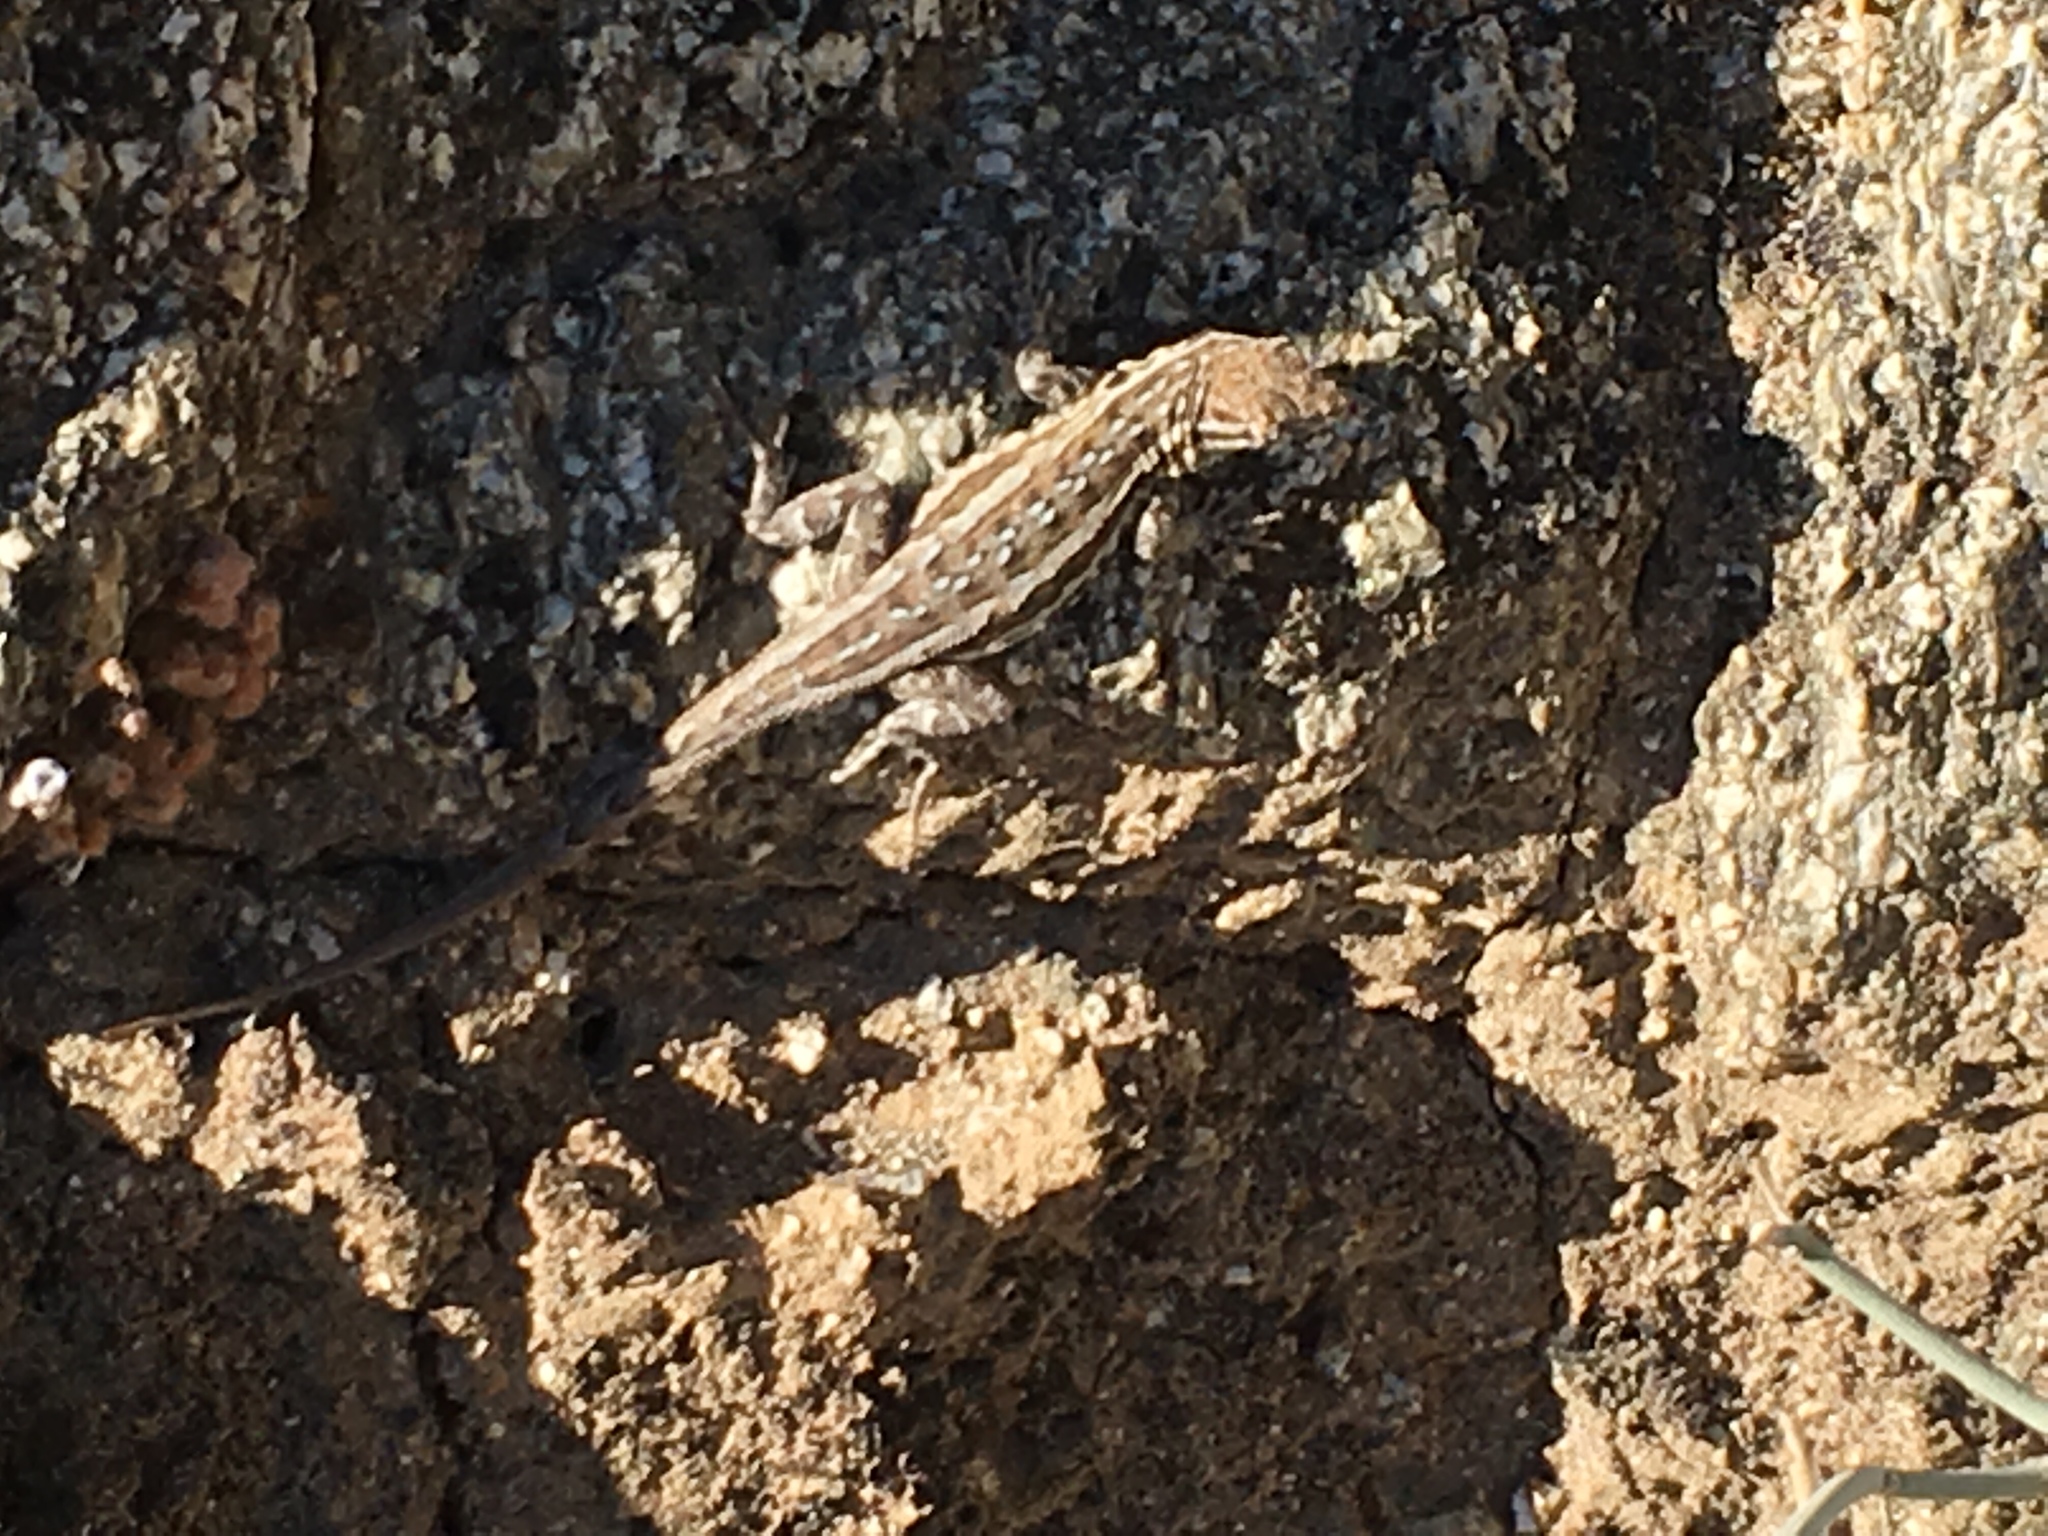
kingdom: Animalia
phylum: Chordata
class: Squamata
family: Phrynosomatidae
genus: Uta
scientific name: Uta stansburiana
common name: Side-blotched lizard
